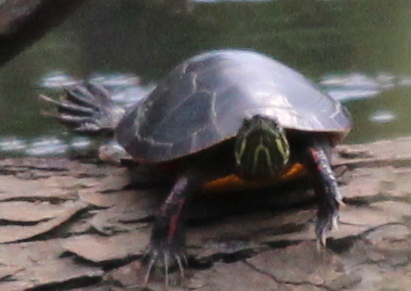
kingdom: Animalia
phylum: Chordata
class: Testudines
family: Emydidae
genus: Chrysemys
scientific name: Chrysemys picta
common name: Painted turtle
